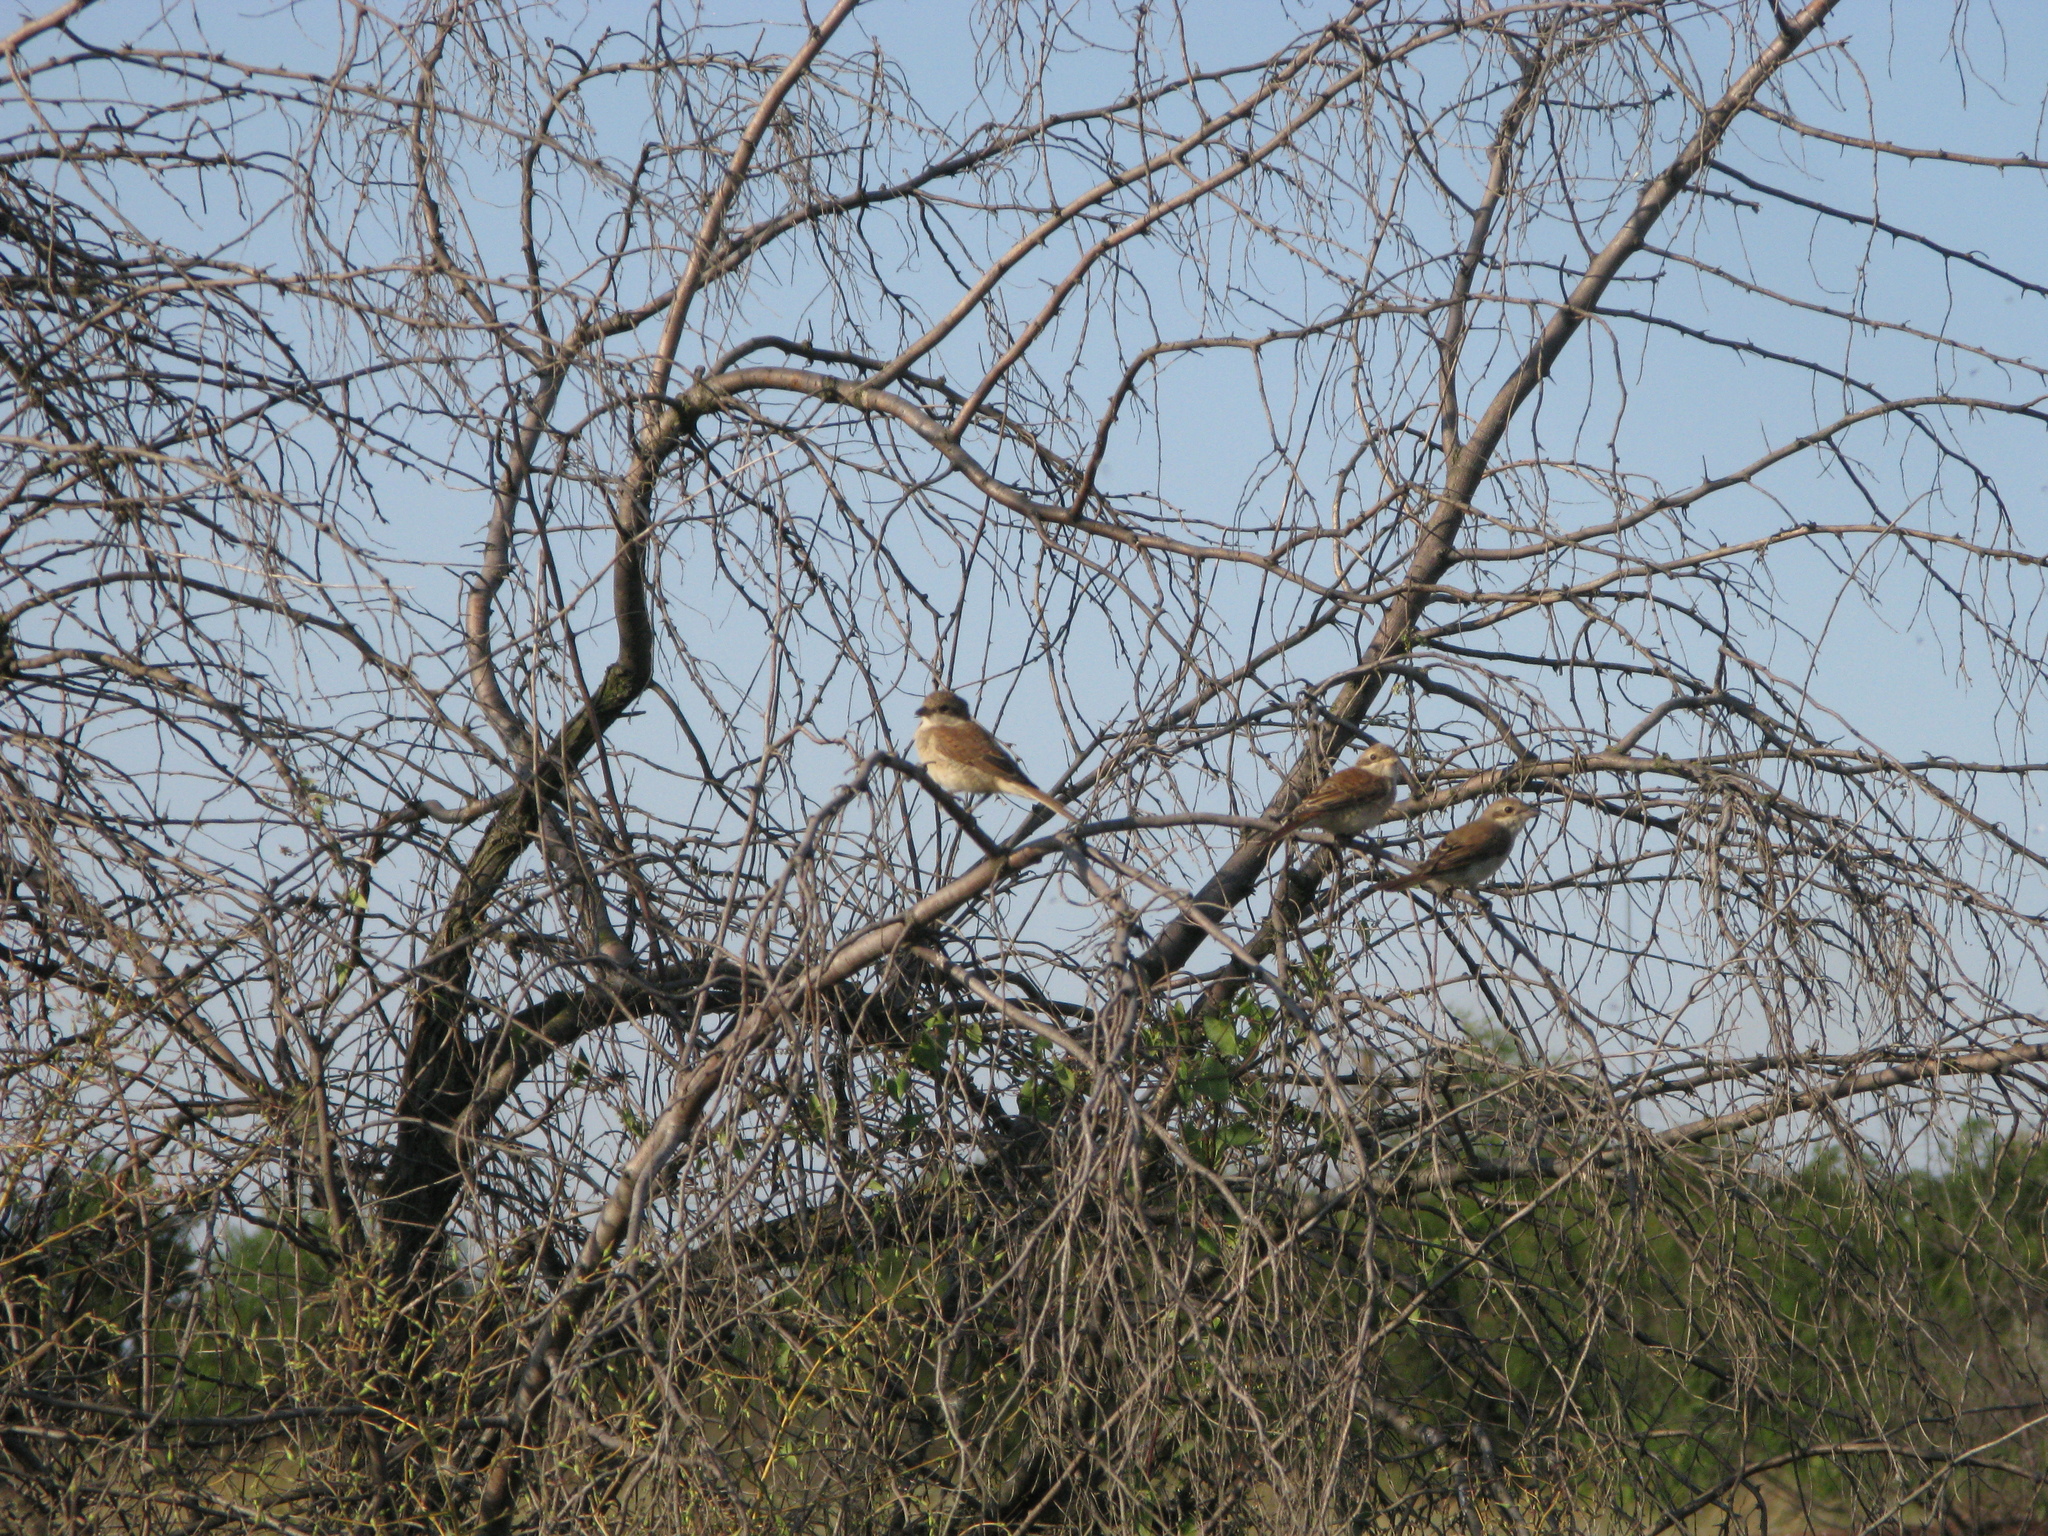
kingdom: Animalia
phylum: Chordata
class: Aves
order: Passeriformes
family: Laniidae
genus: Lanius
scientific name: Lanius collurio
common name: Red-backed shrike
